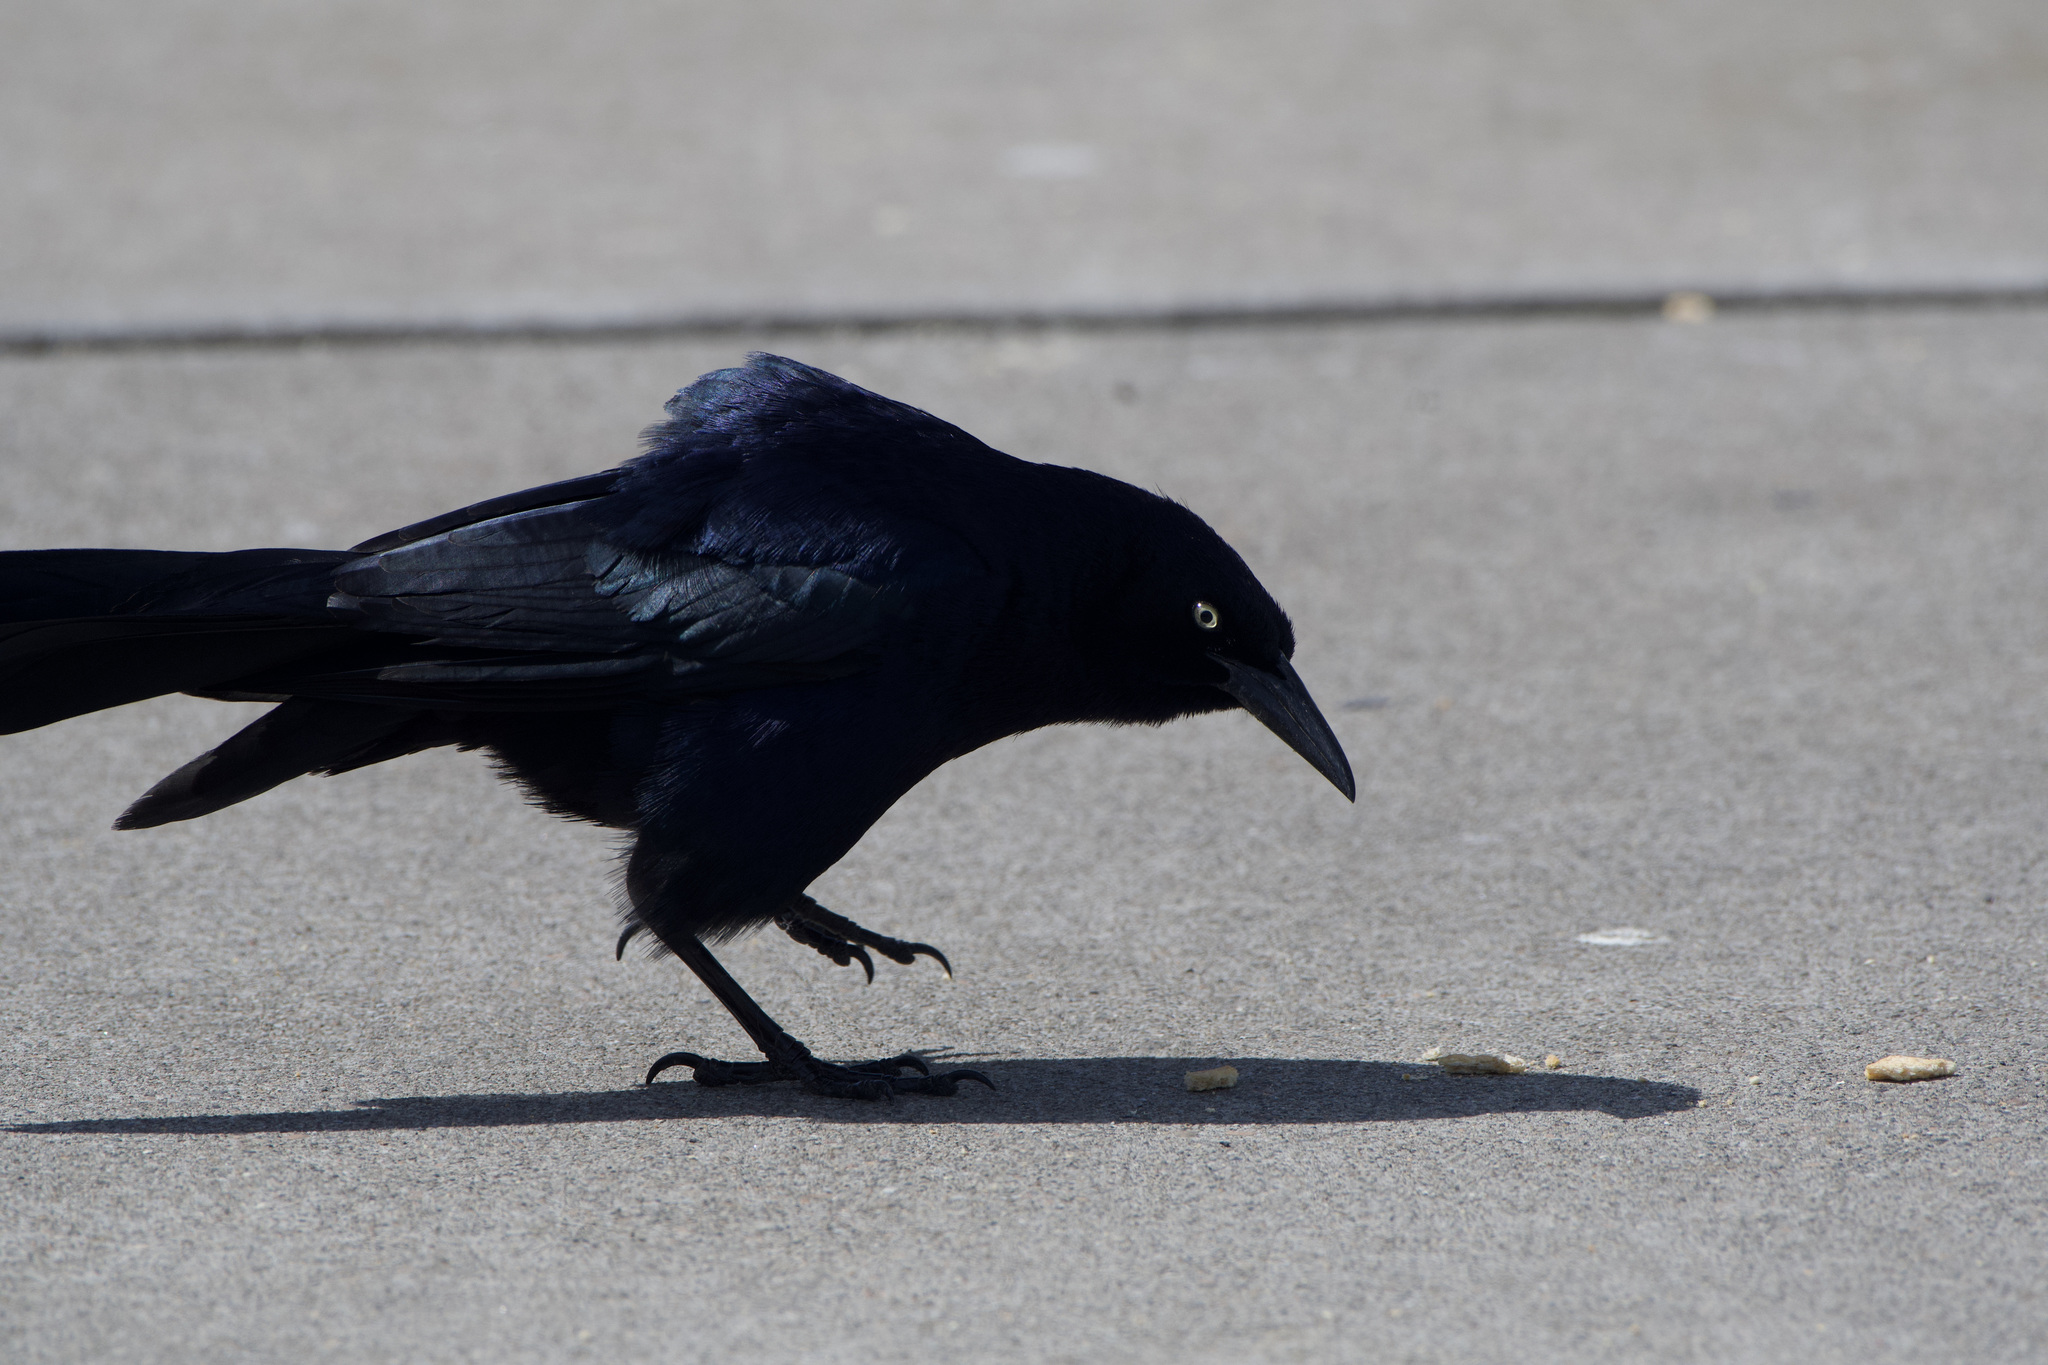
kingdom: Animalia
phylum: Chordata
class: Aves
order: Passeriformes
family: Icteridae
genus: Quiscalus
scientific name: Quiscalus mexicanus
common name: Great-tailed grackle
